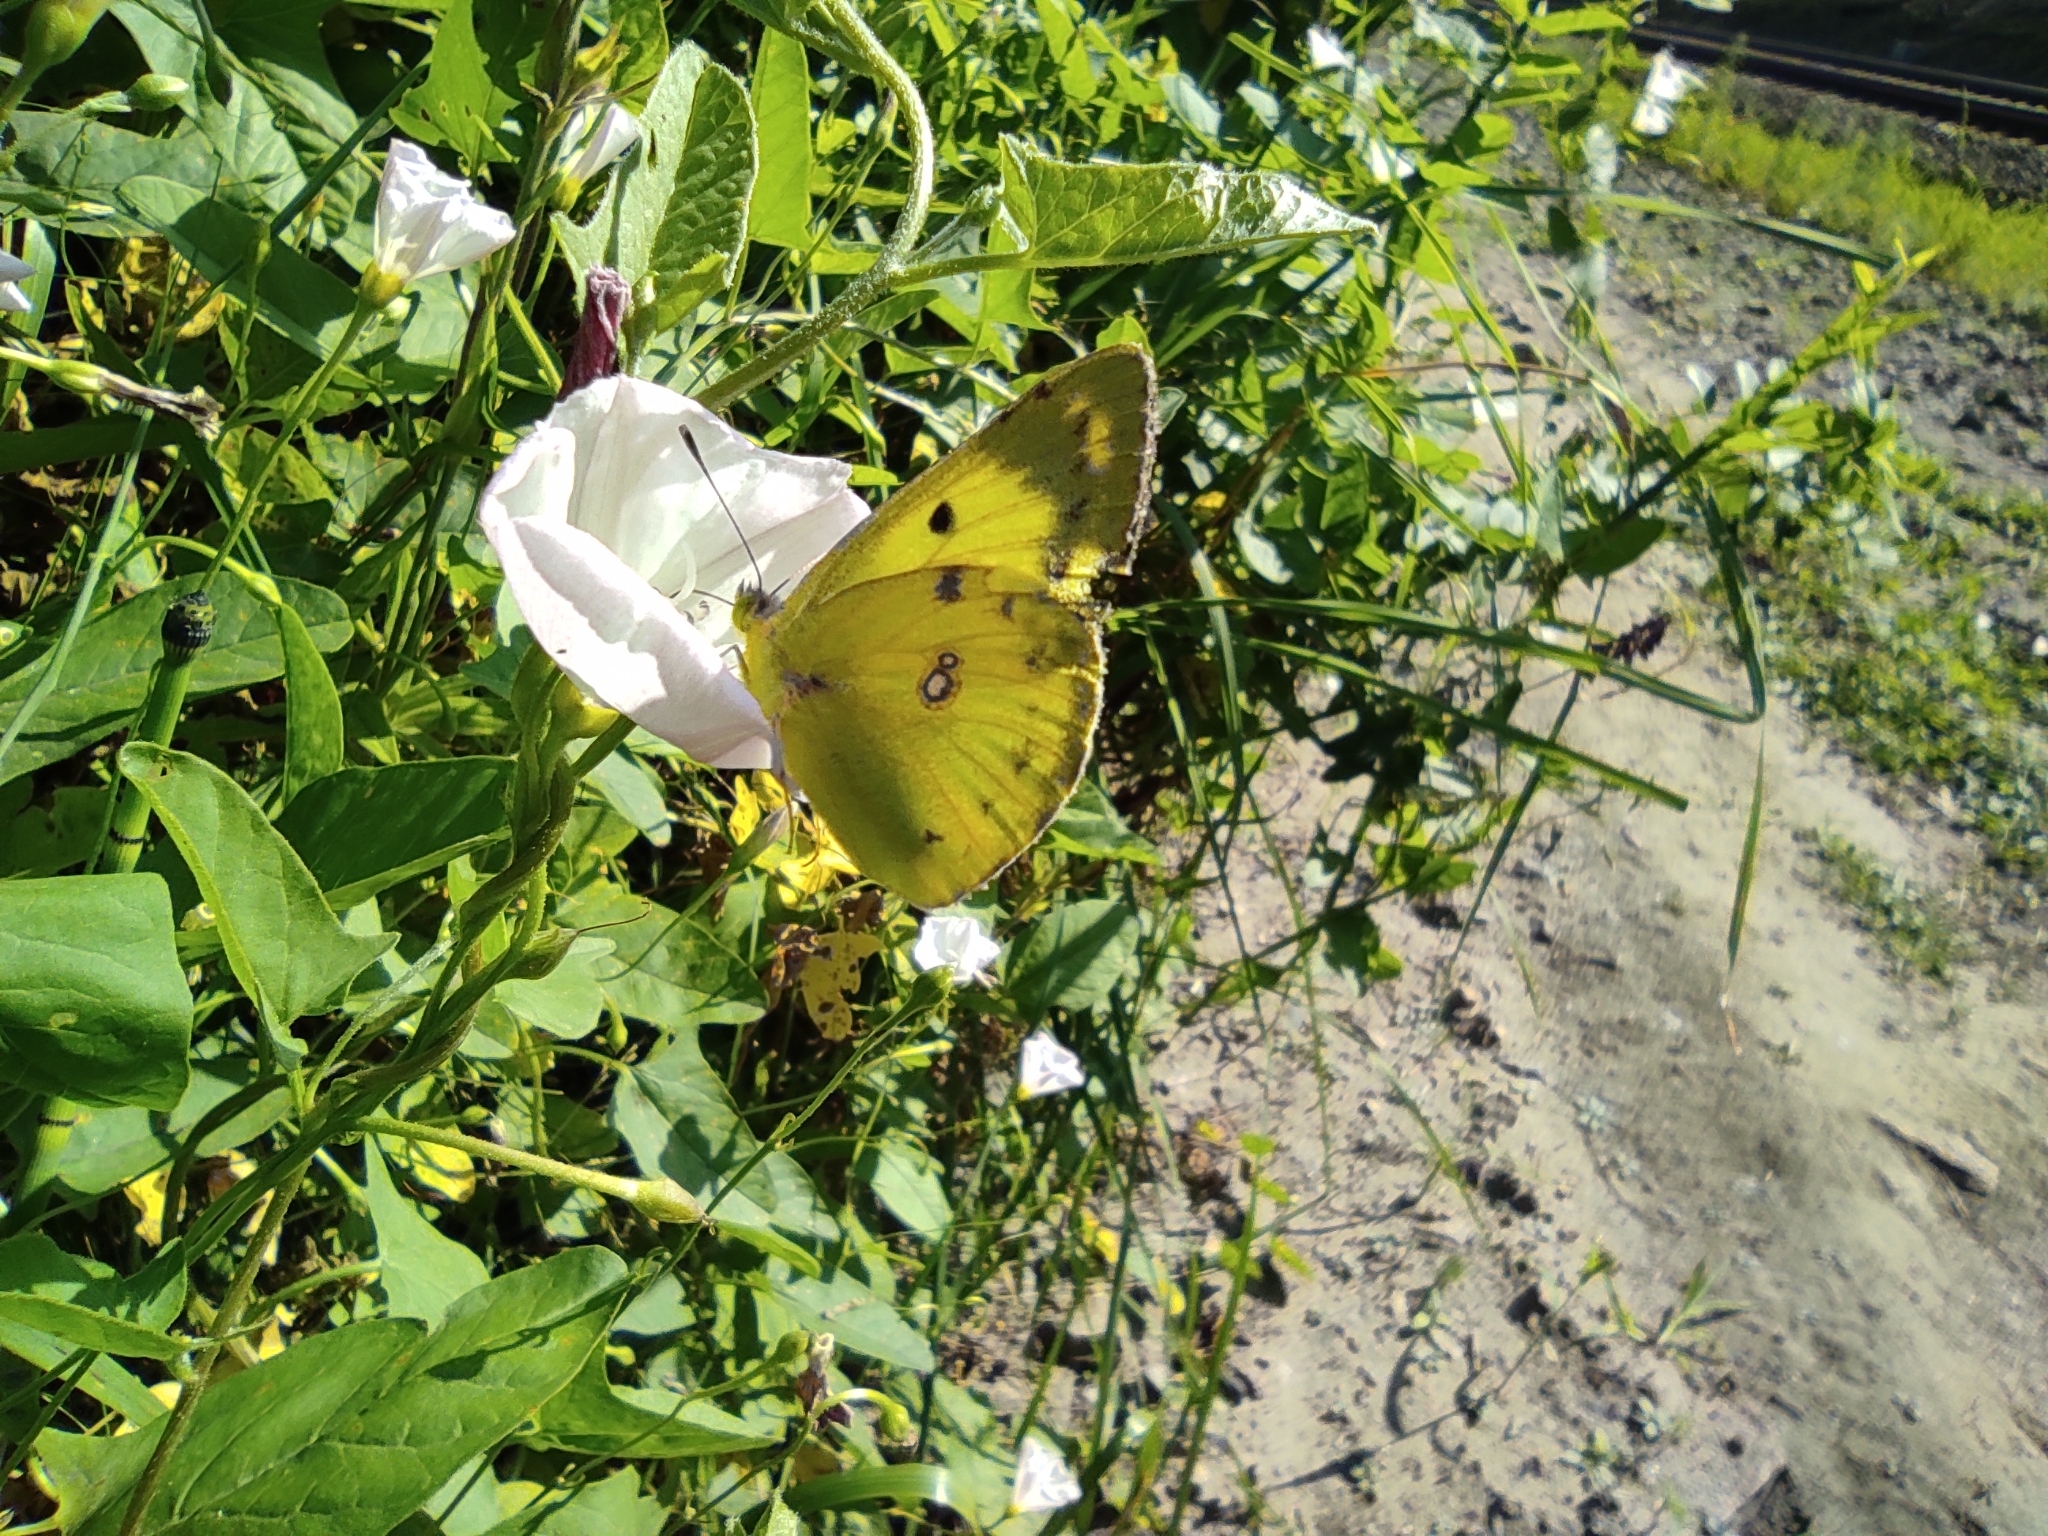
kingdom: Animalia
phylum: Arthropoda
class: Insecta
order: Lepidoptera
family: Pieridae
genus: Colias
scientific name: Colias hyale
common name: Pale clouded yellow
